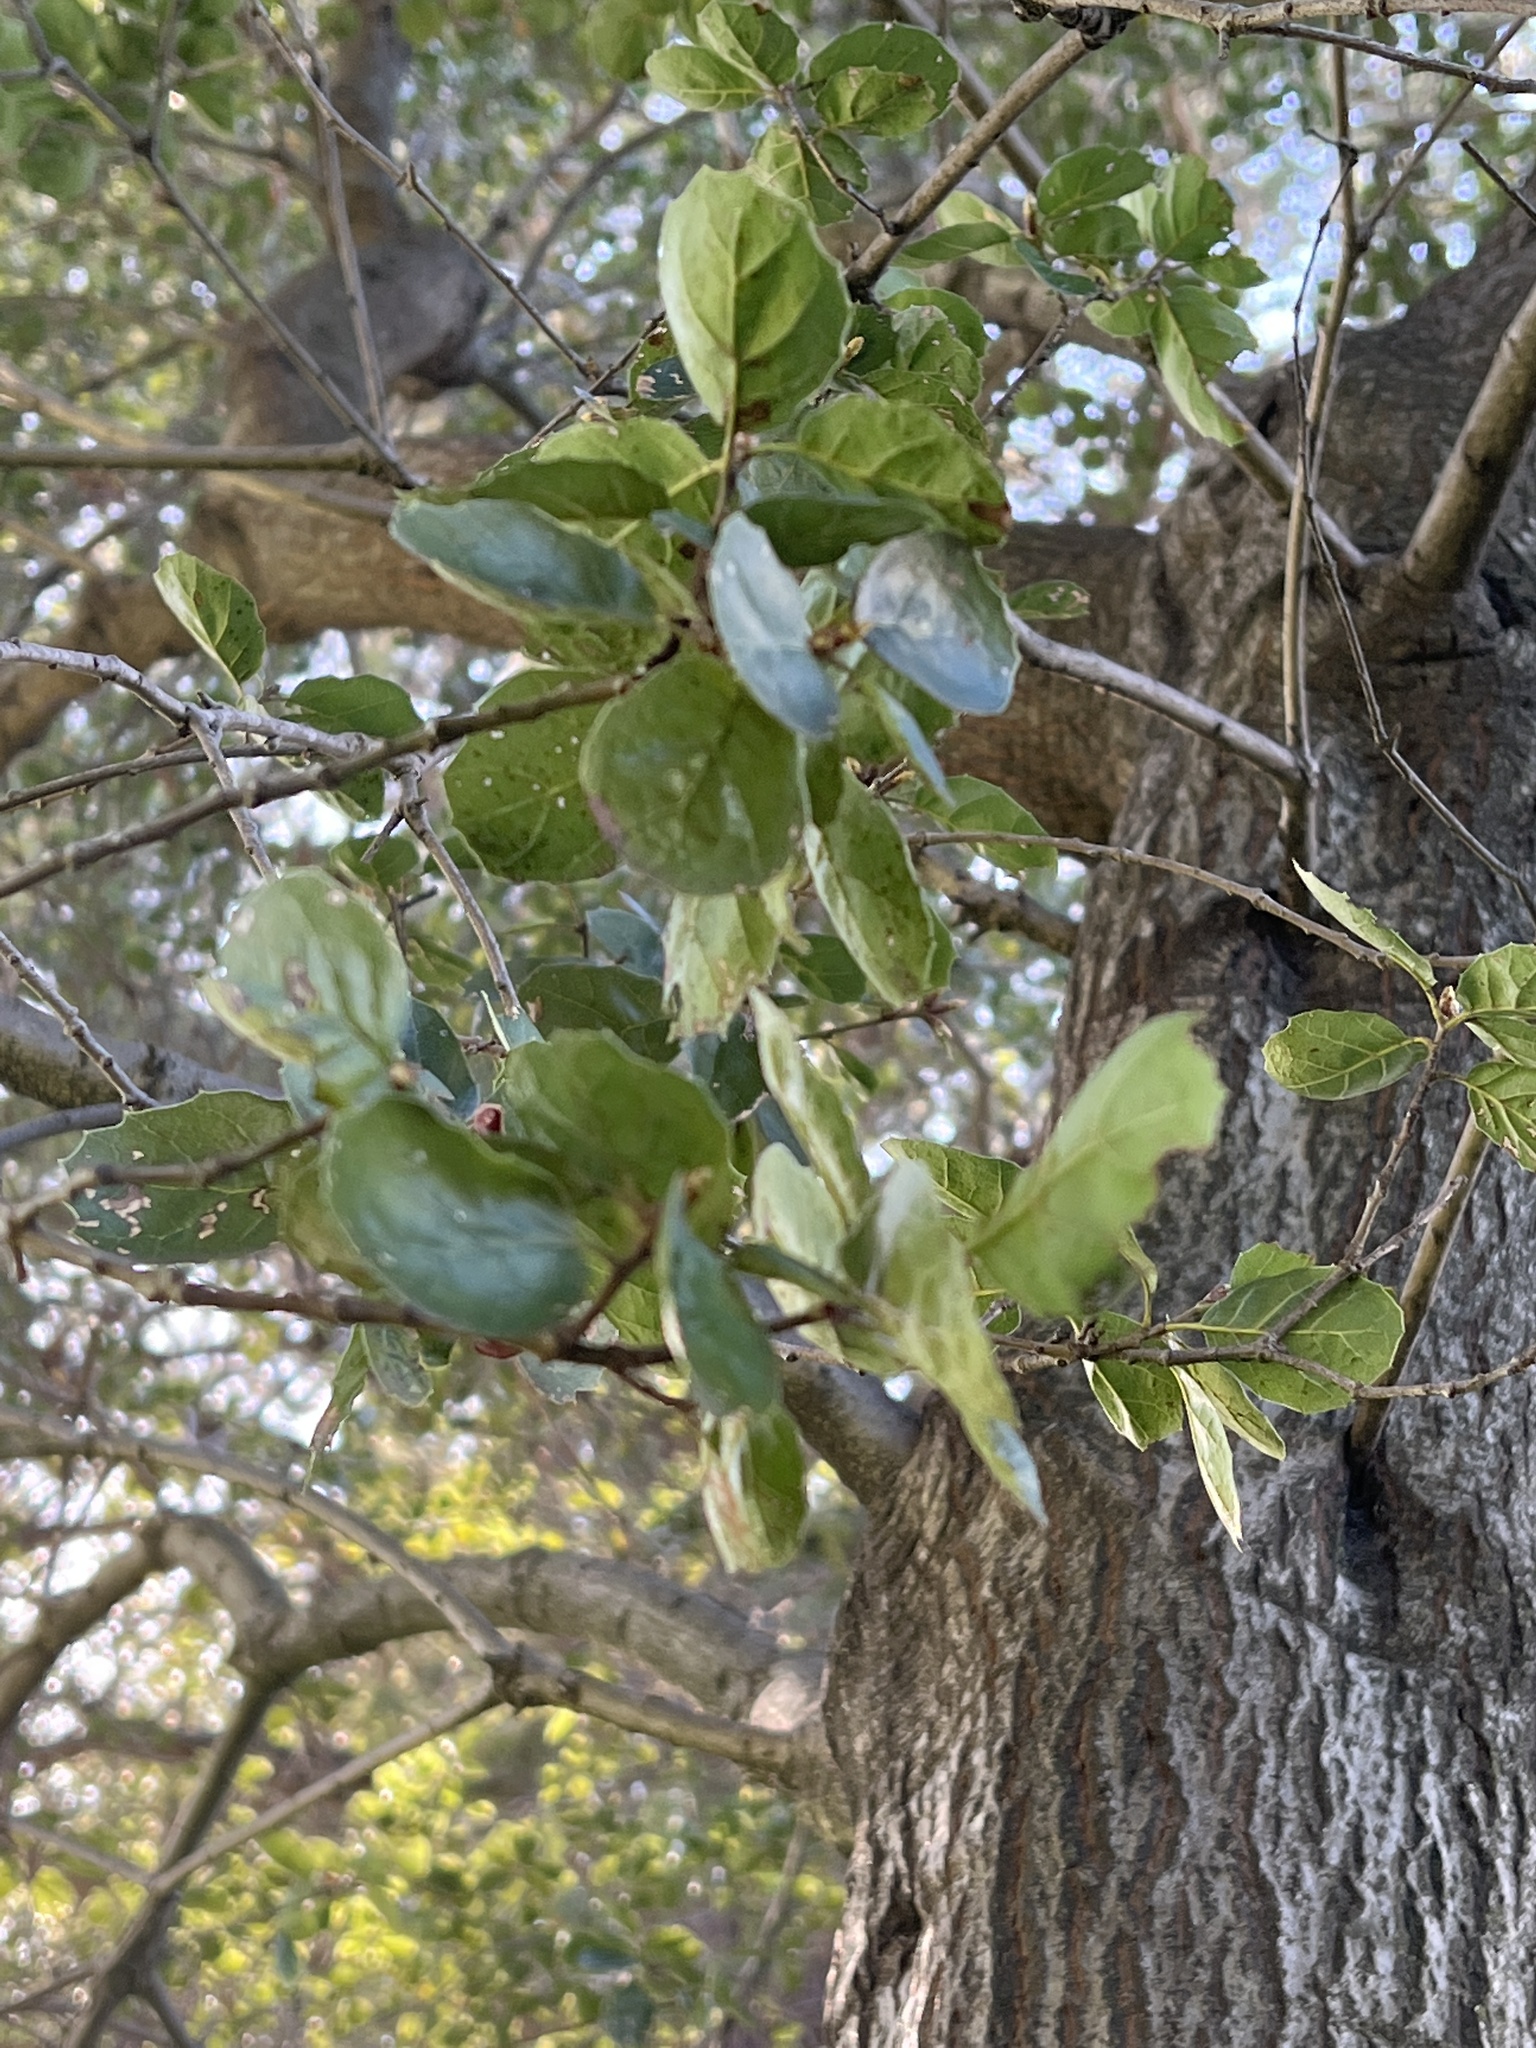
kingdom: Plantae
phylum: Tracheophyta
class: Magnoliopsida
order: Fagales
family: Fagaceae
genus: Quercus
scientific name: Quercus agrifolia
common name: California live oak
